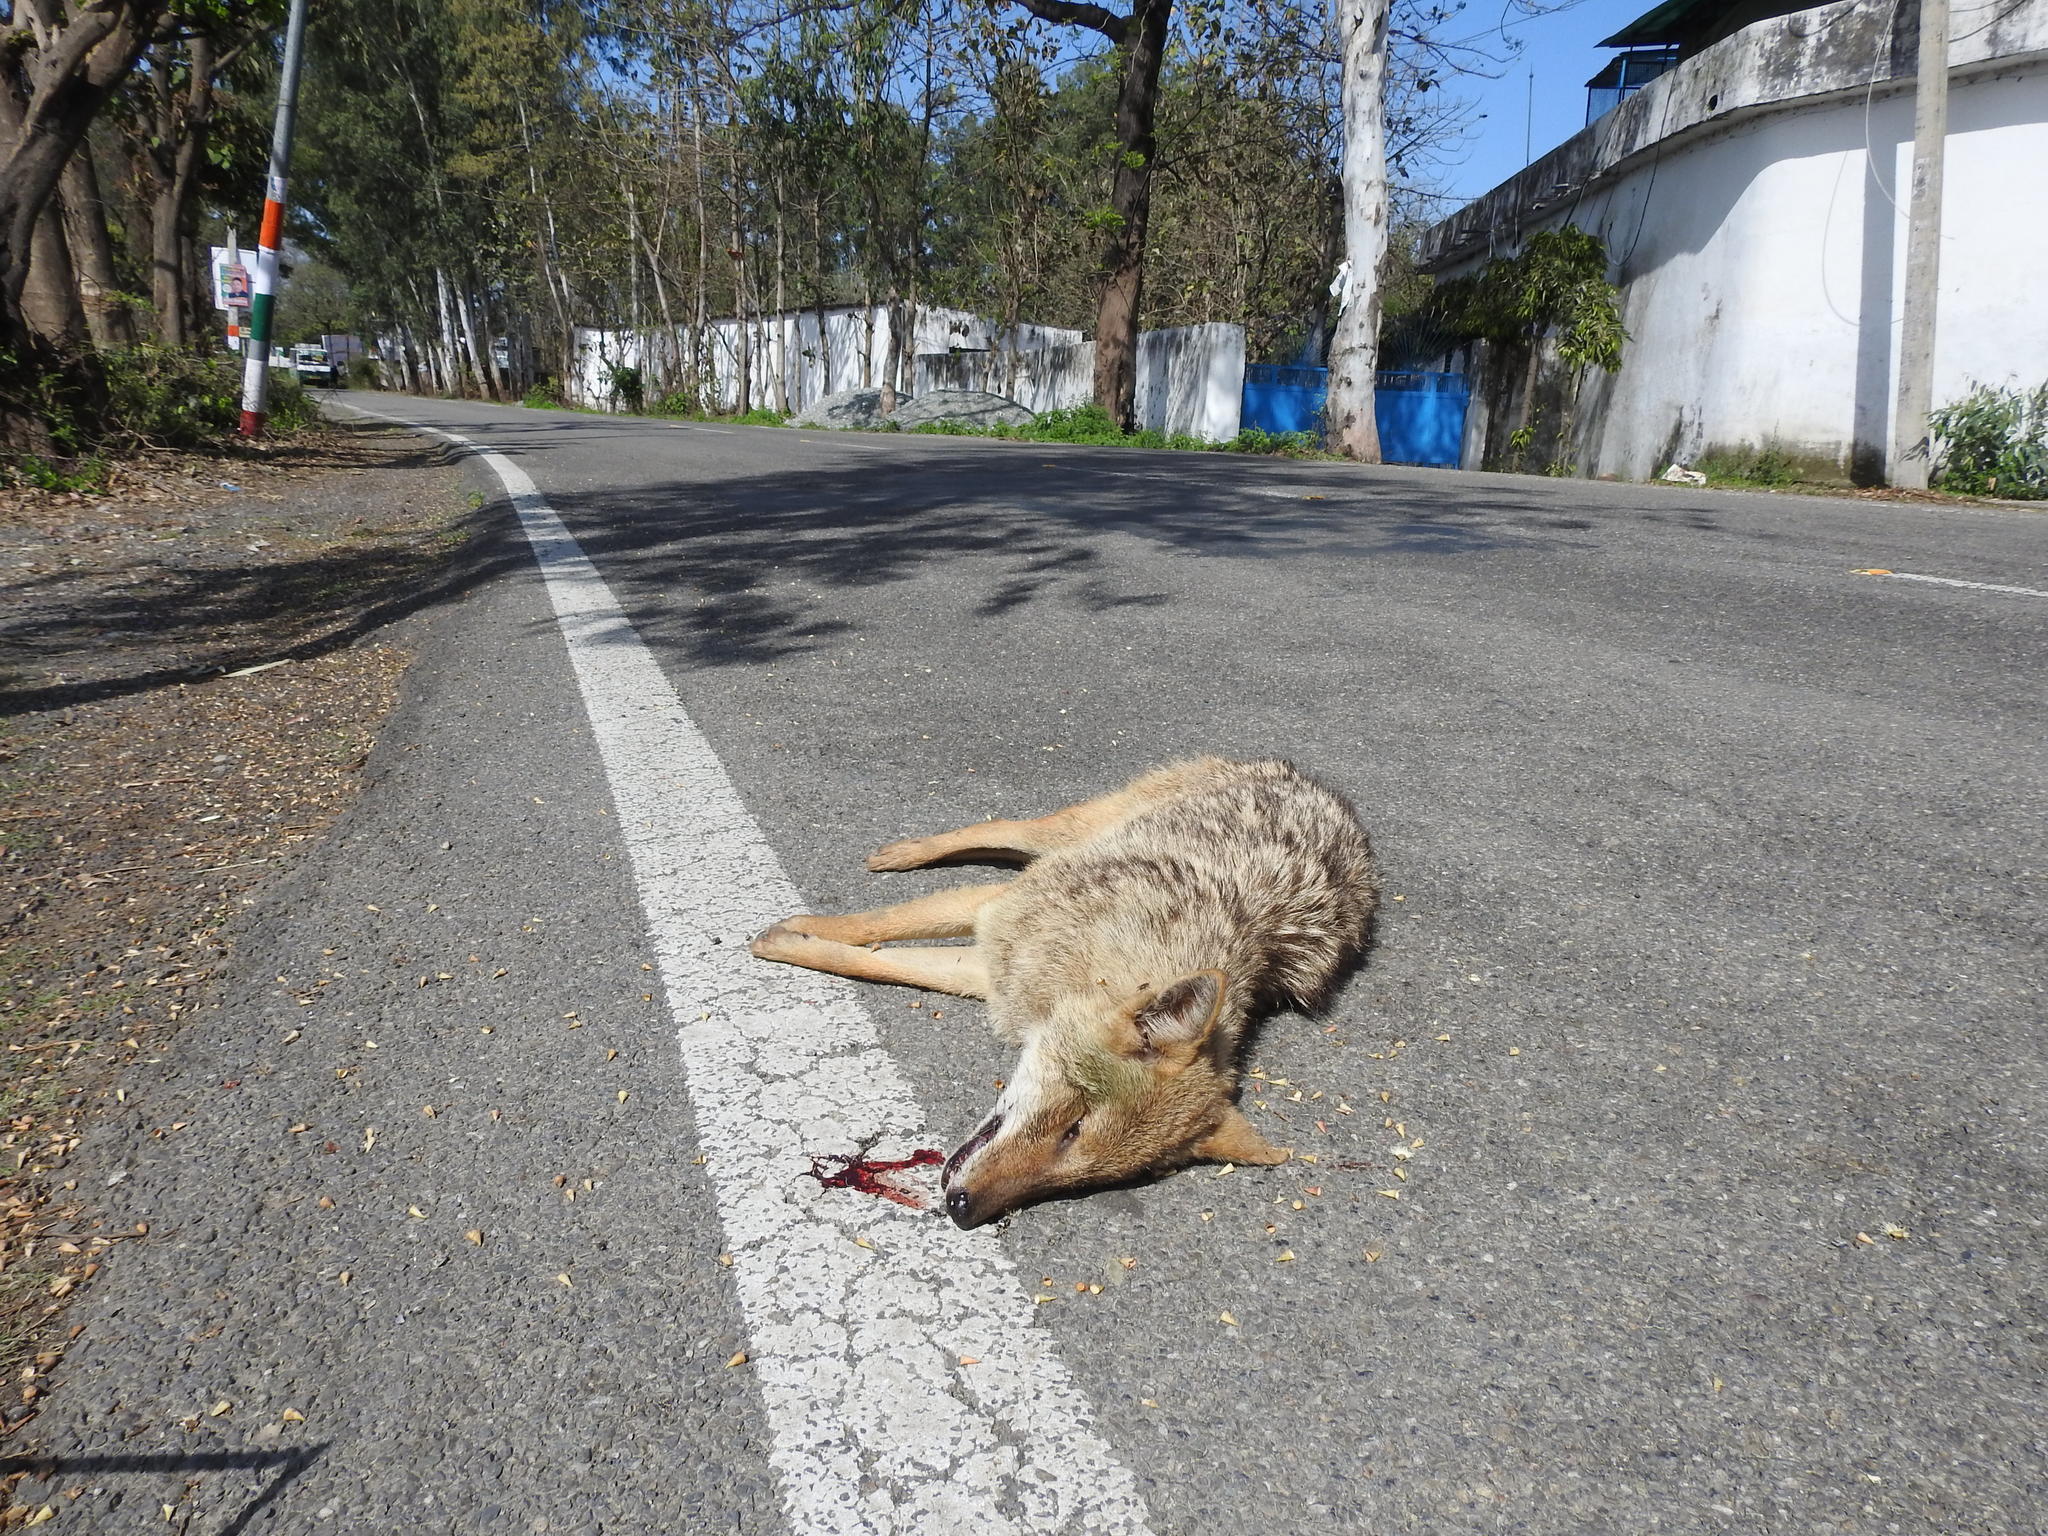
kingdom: Animalia
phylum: Chordata
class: Mammalia
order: Carnivora
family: Canidae
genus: Canis
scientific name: Canis aureus
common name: Golden jackal
